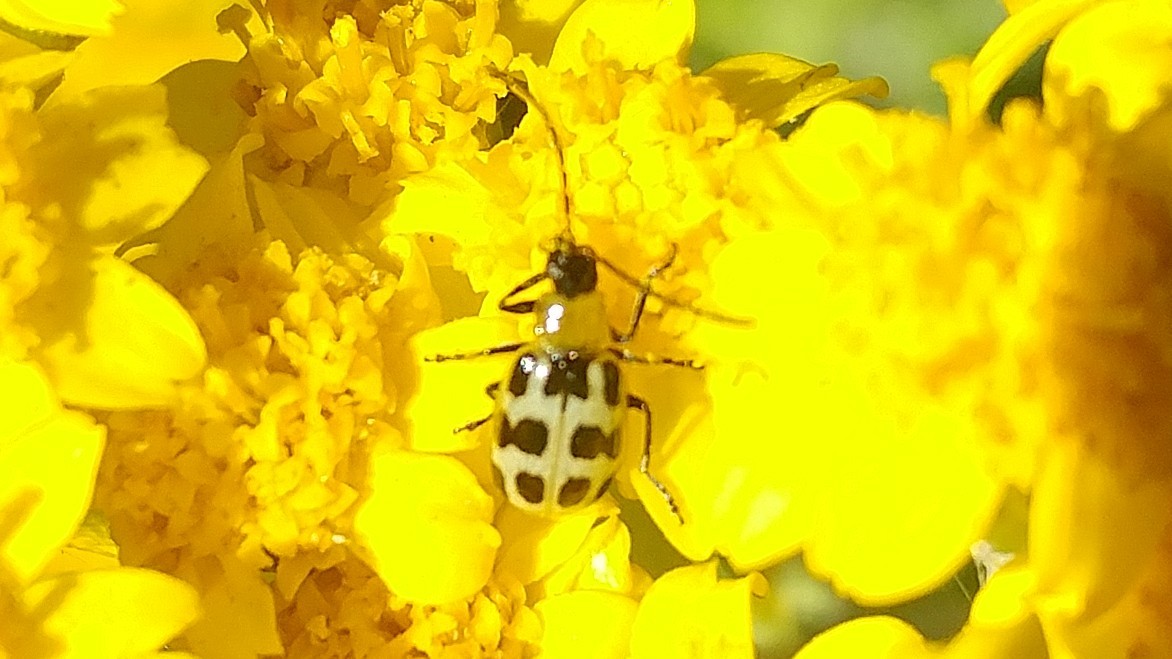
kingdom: Animalia
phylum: Arthropoda
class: Insecta
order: Coleoptera
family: Chrysomelidae
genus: Diabrotica
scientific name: Diabrotica undecimpunctata
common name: Spotted cucumber beetle
